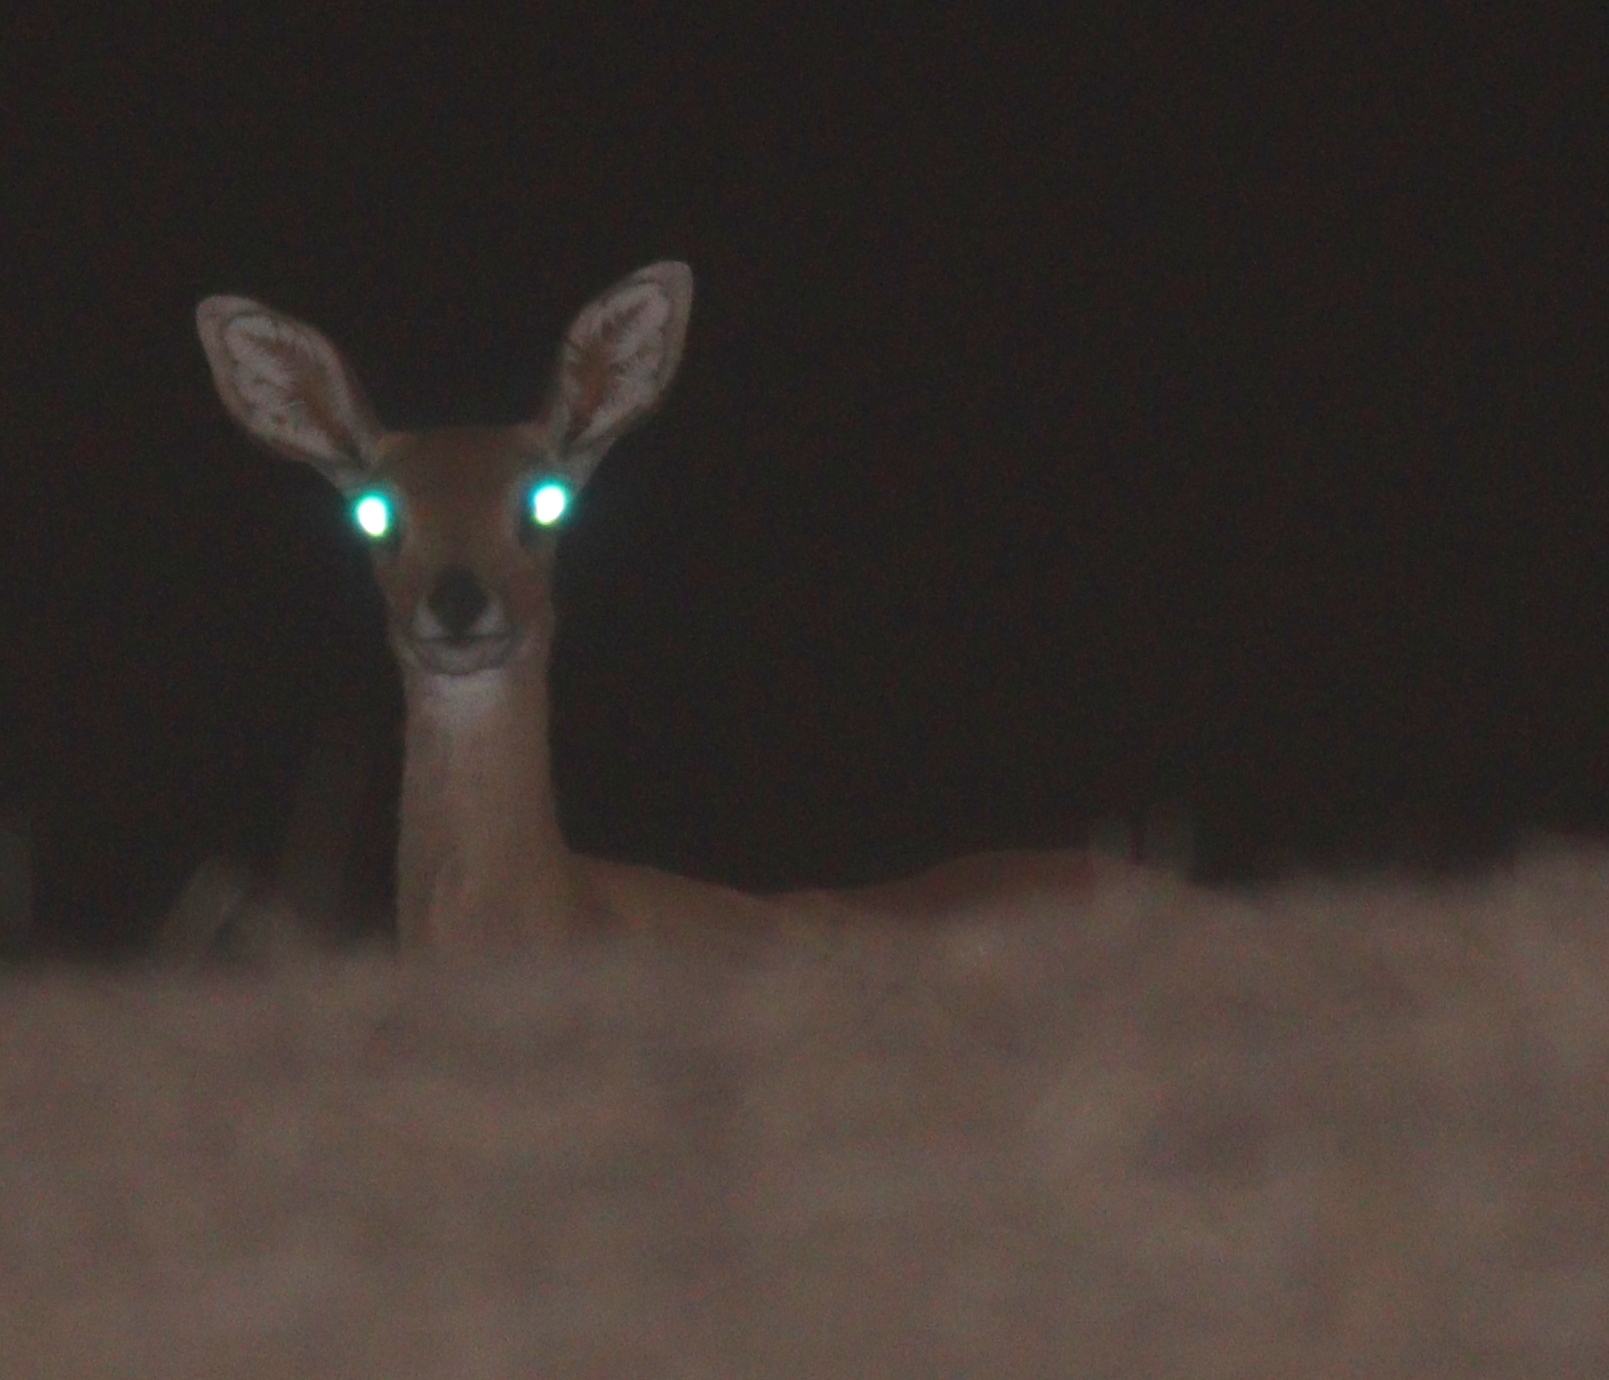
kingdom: Animalia
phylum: Chordata
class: Mammalia
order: Artiodactyla
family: Bovidae
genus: Raphicerus
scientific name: Raphicerus campestris
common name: Steenbok
